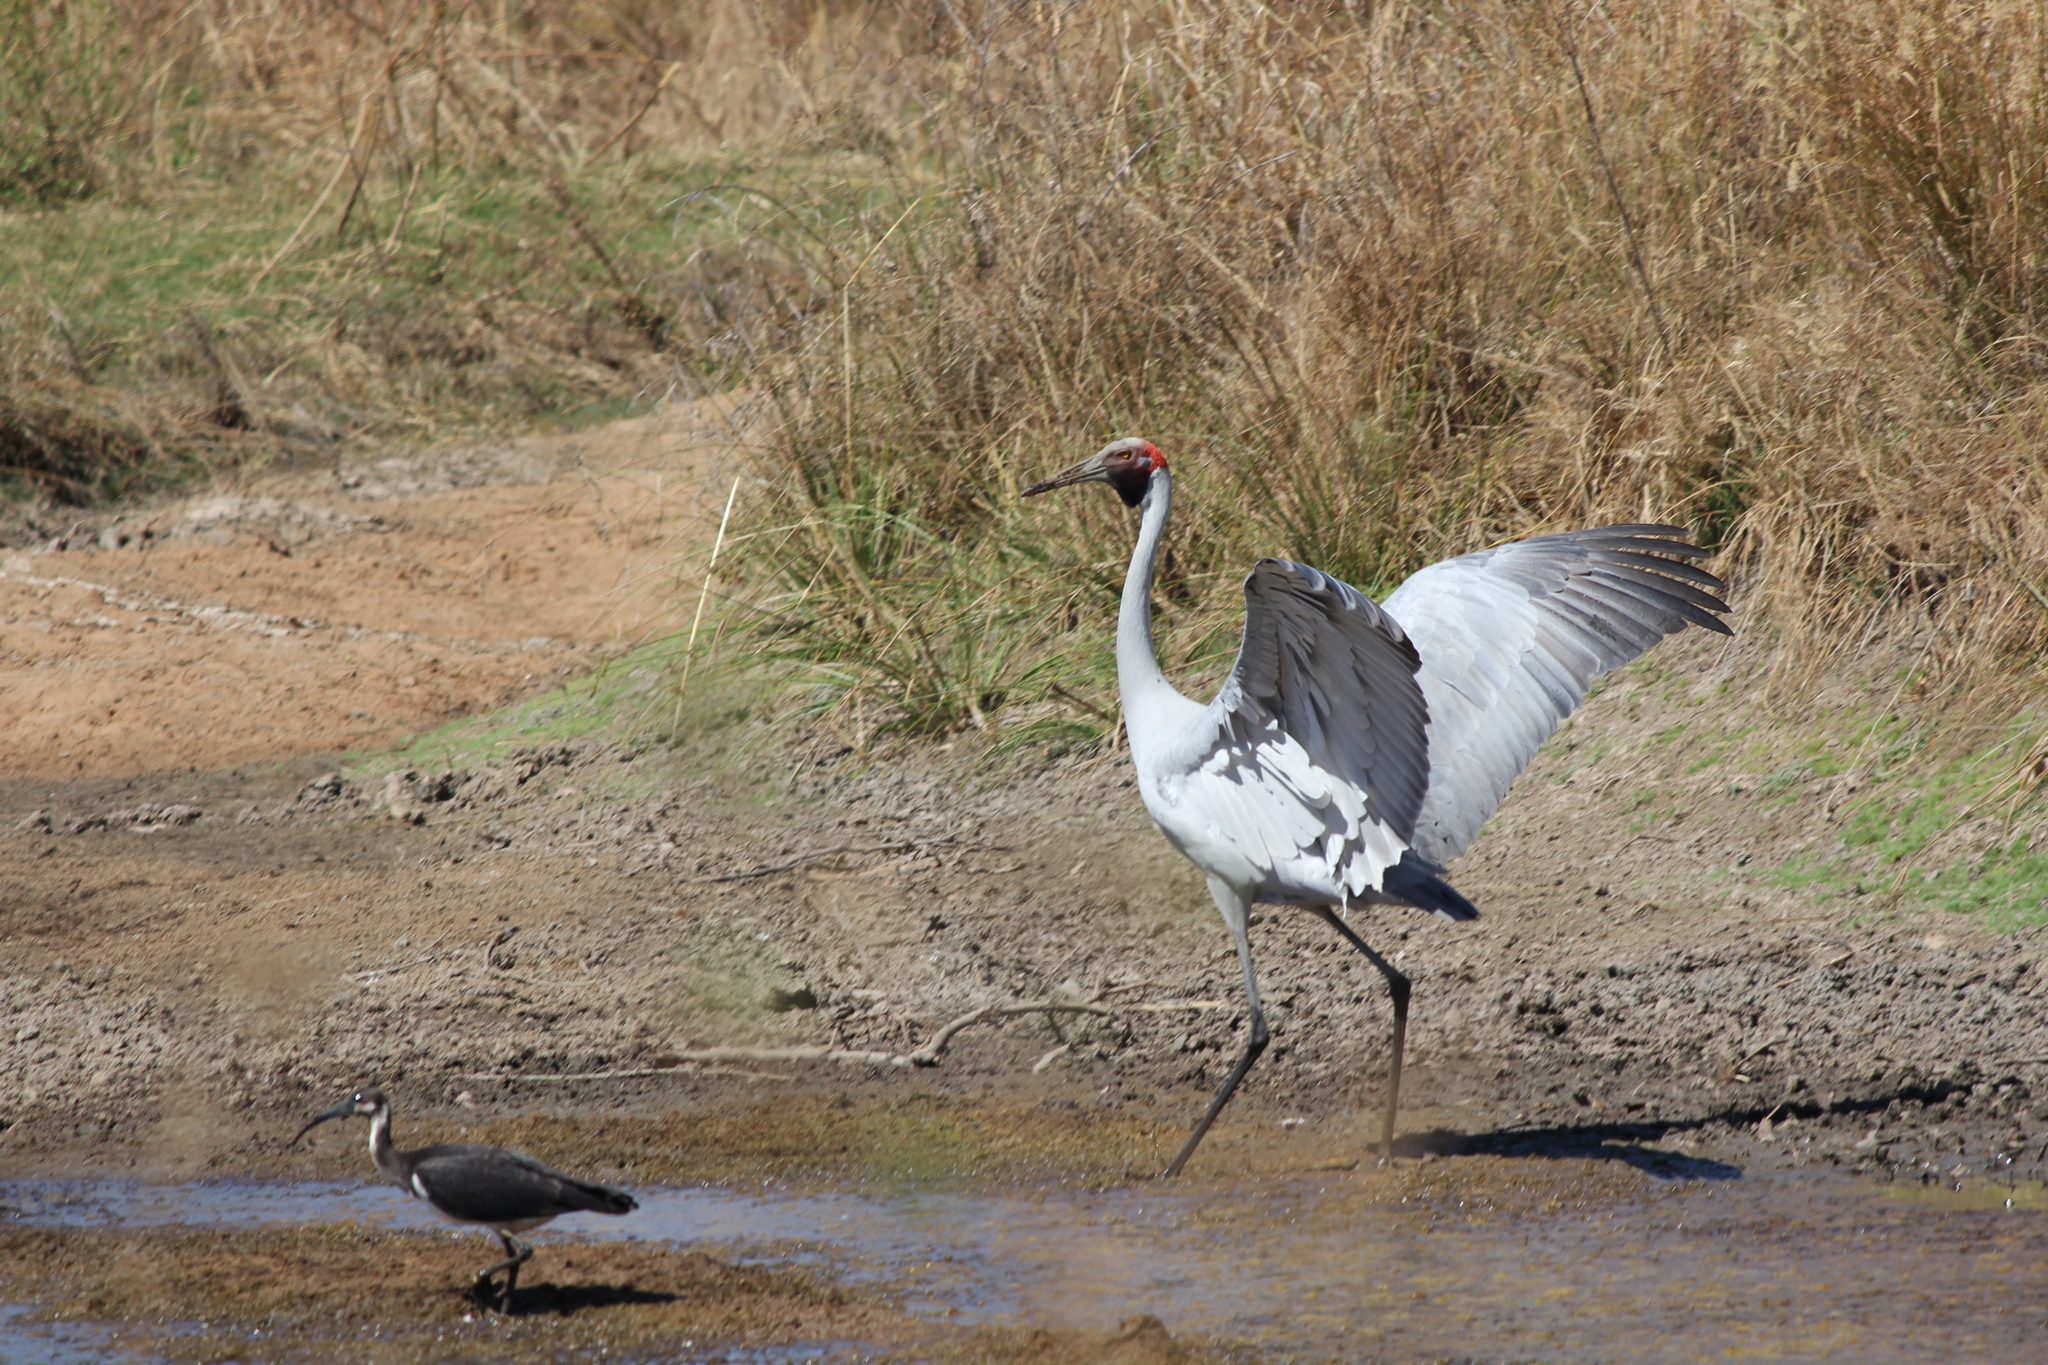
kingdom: Animalia
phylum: Chordata
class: Aves
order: Pelecaniformes
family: Threskiornithidae
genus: Threskiornis
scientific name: Threskiornis spinicollis
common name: Straw-necked ibis
